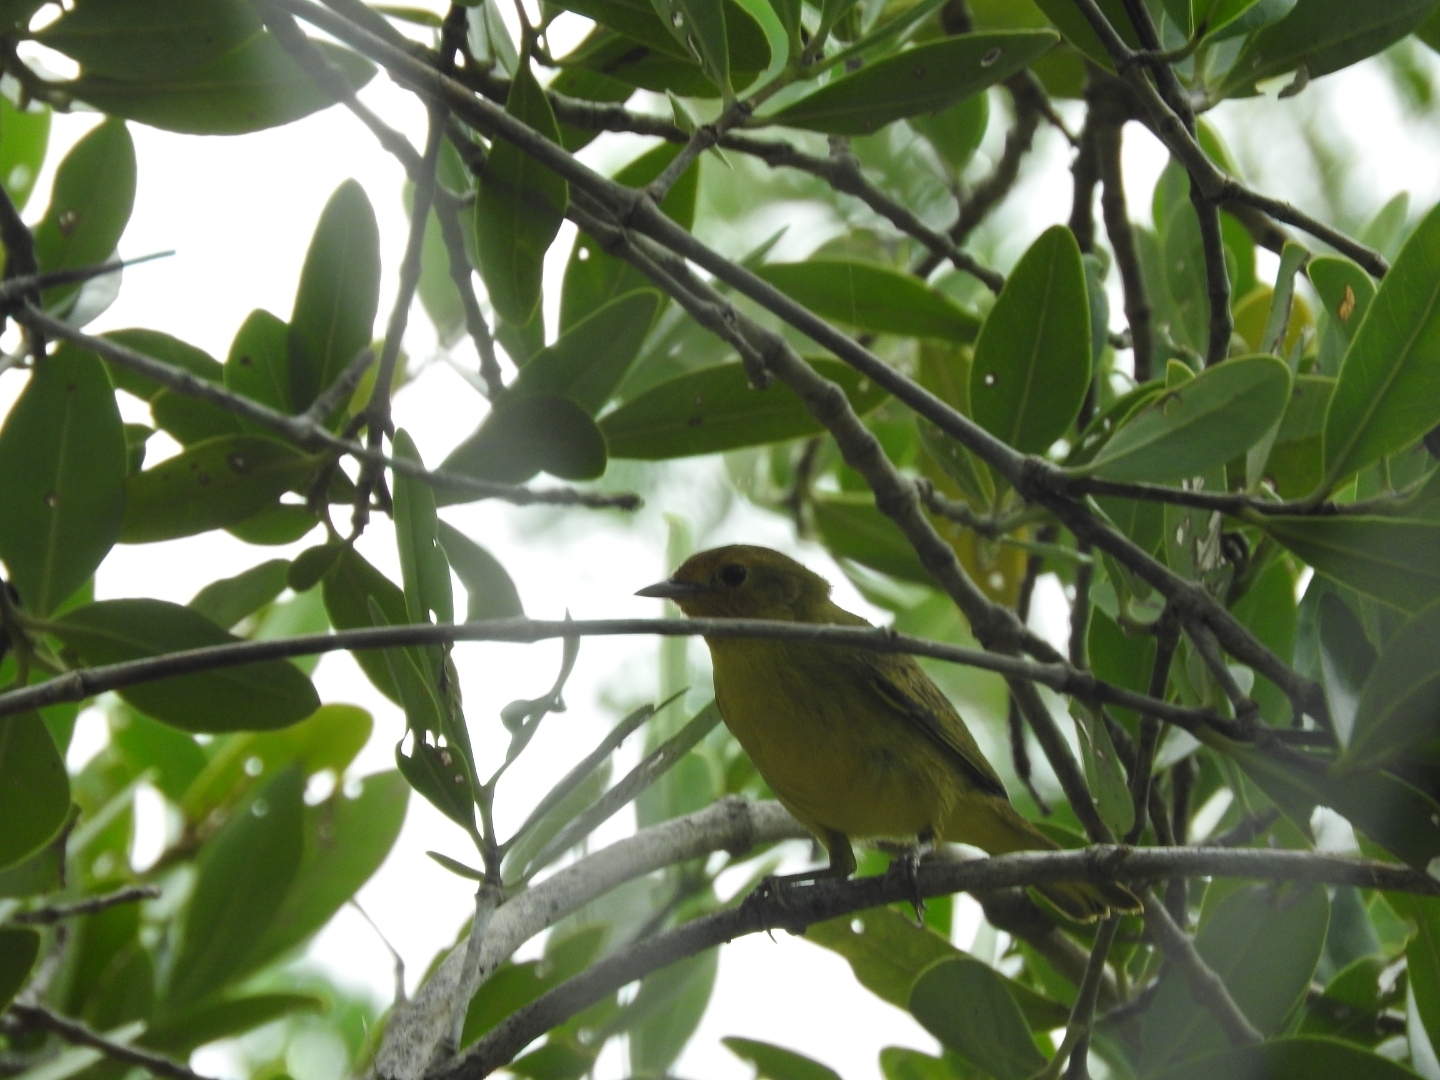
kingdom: Animalia
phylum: Chordata
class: Aves
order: Passeriformes
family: Parulidae
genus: Setophaga
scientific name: Setophaga petechia
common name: Yellow warbler
